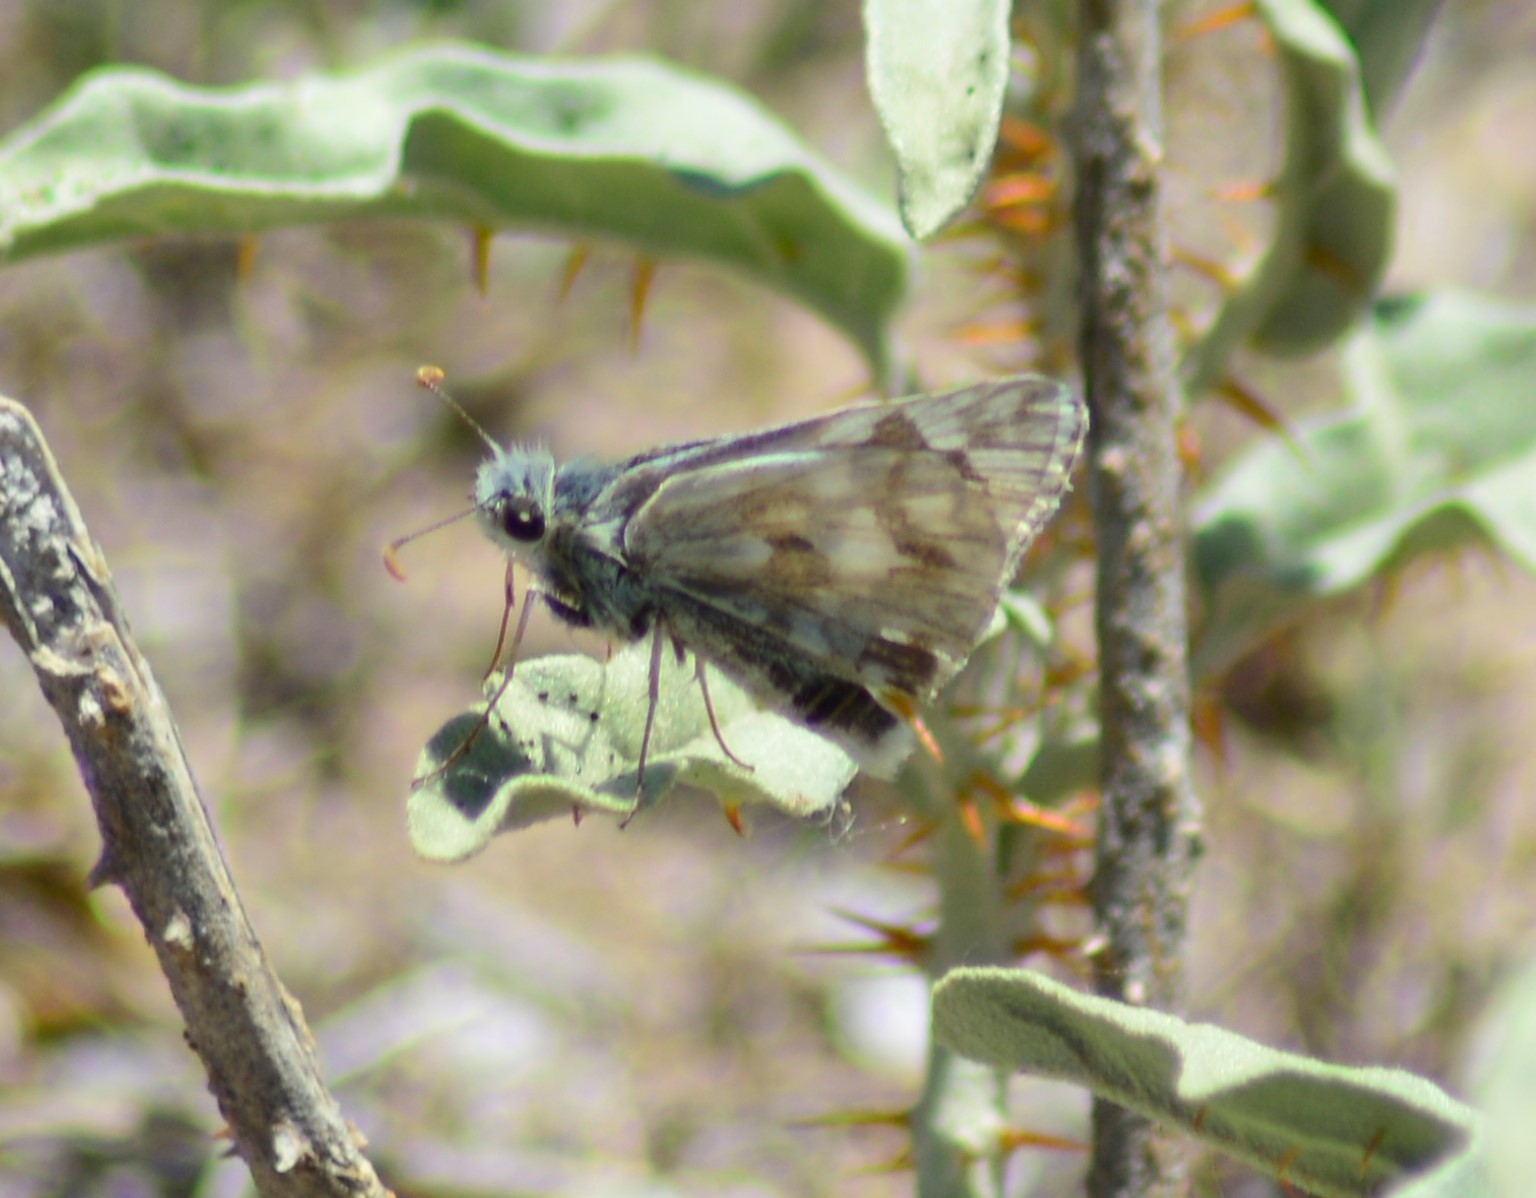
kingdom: Animalia
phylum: Arthropoda
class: Insecta
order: Lepidoptera
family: Hesperiidae
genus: Heliopetes
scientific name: Heliopetes americanus
